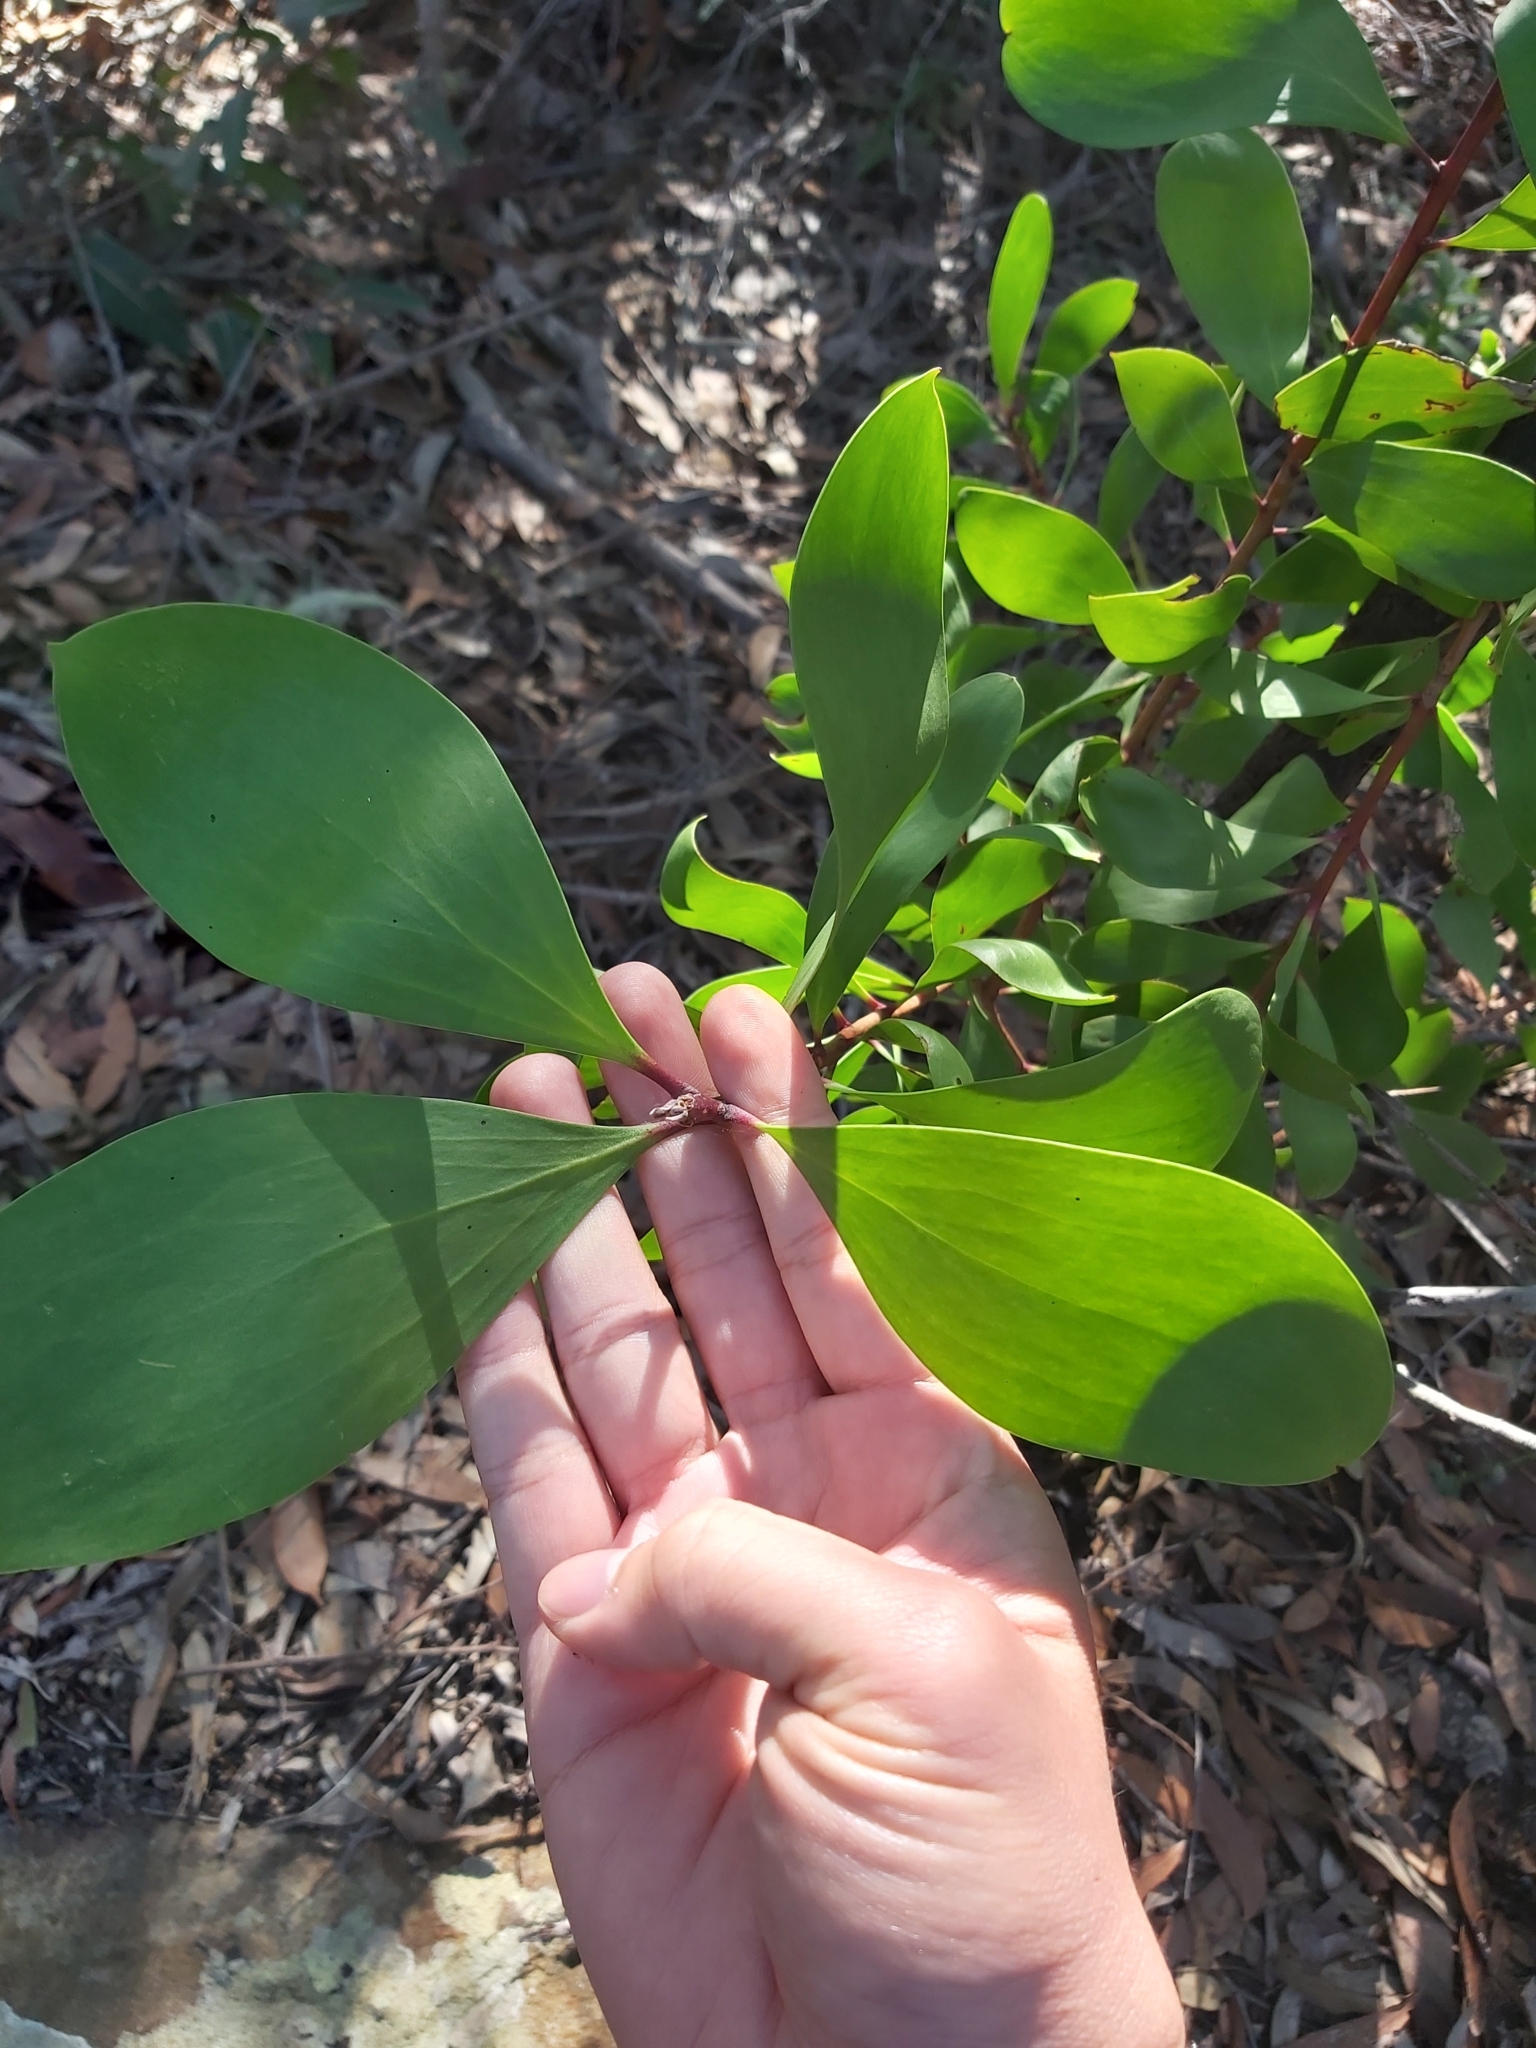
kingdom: Plantae
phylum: Tracheophyta
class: Magnoliopsida
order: Proteales
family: Proteaceae
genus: Persoonia
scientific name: Persoonia levis
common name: Smooth geebung
